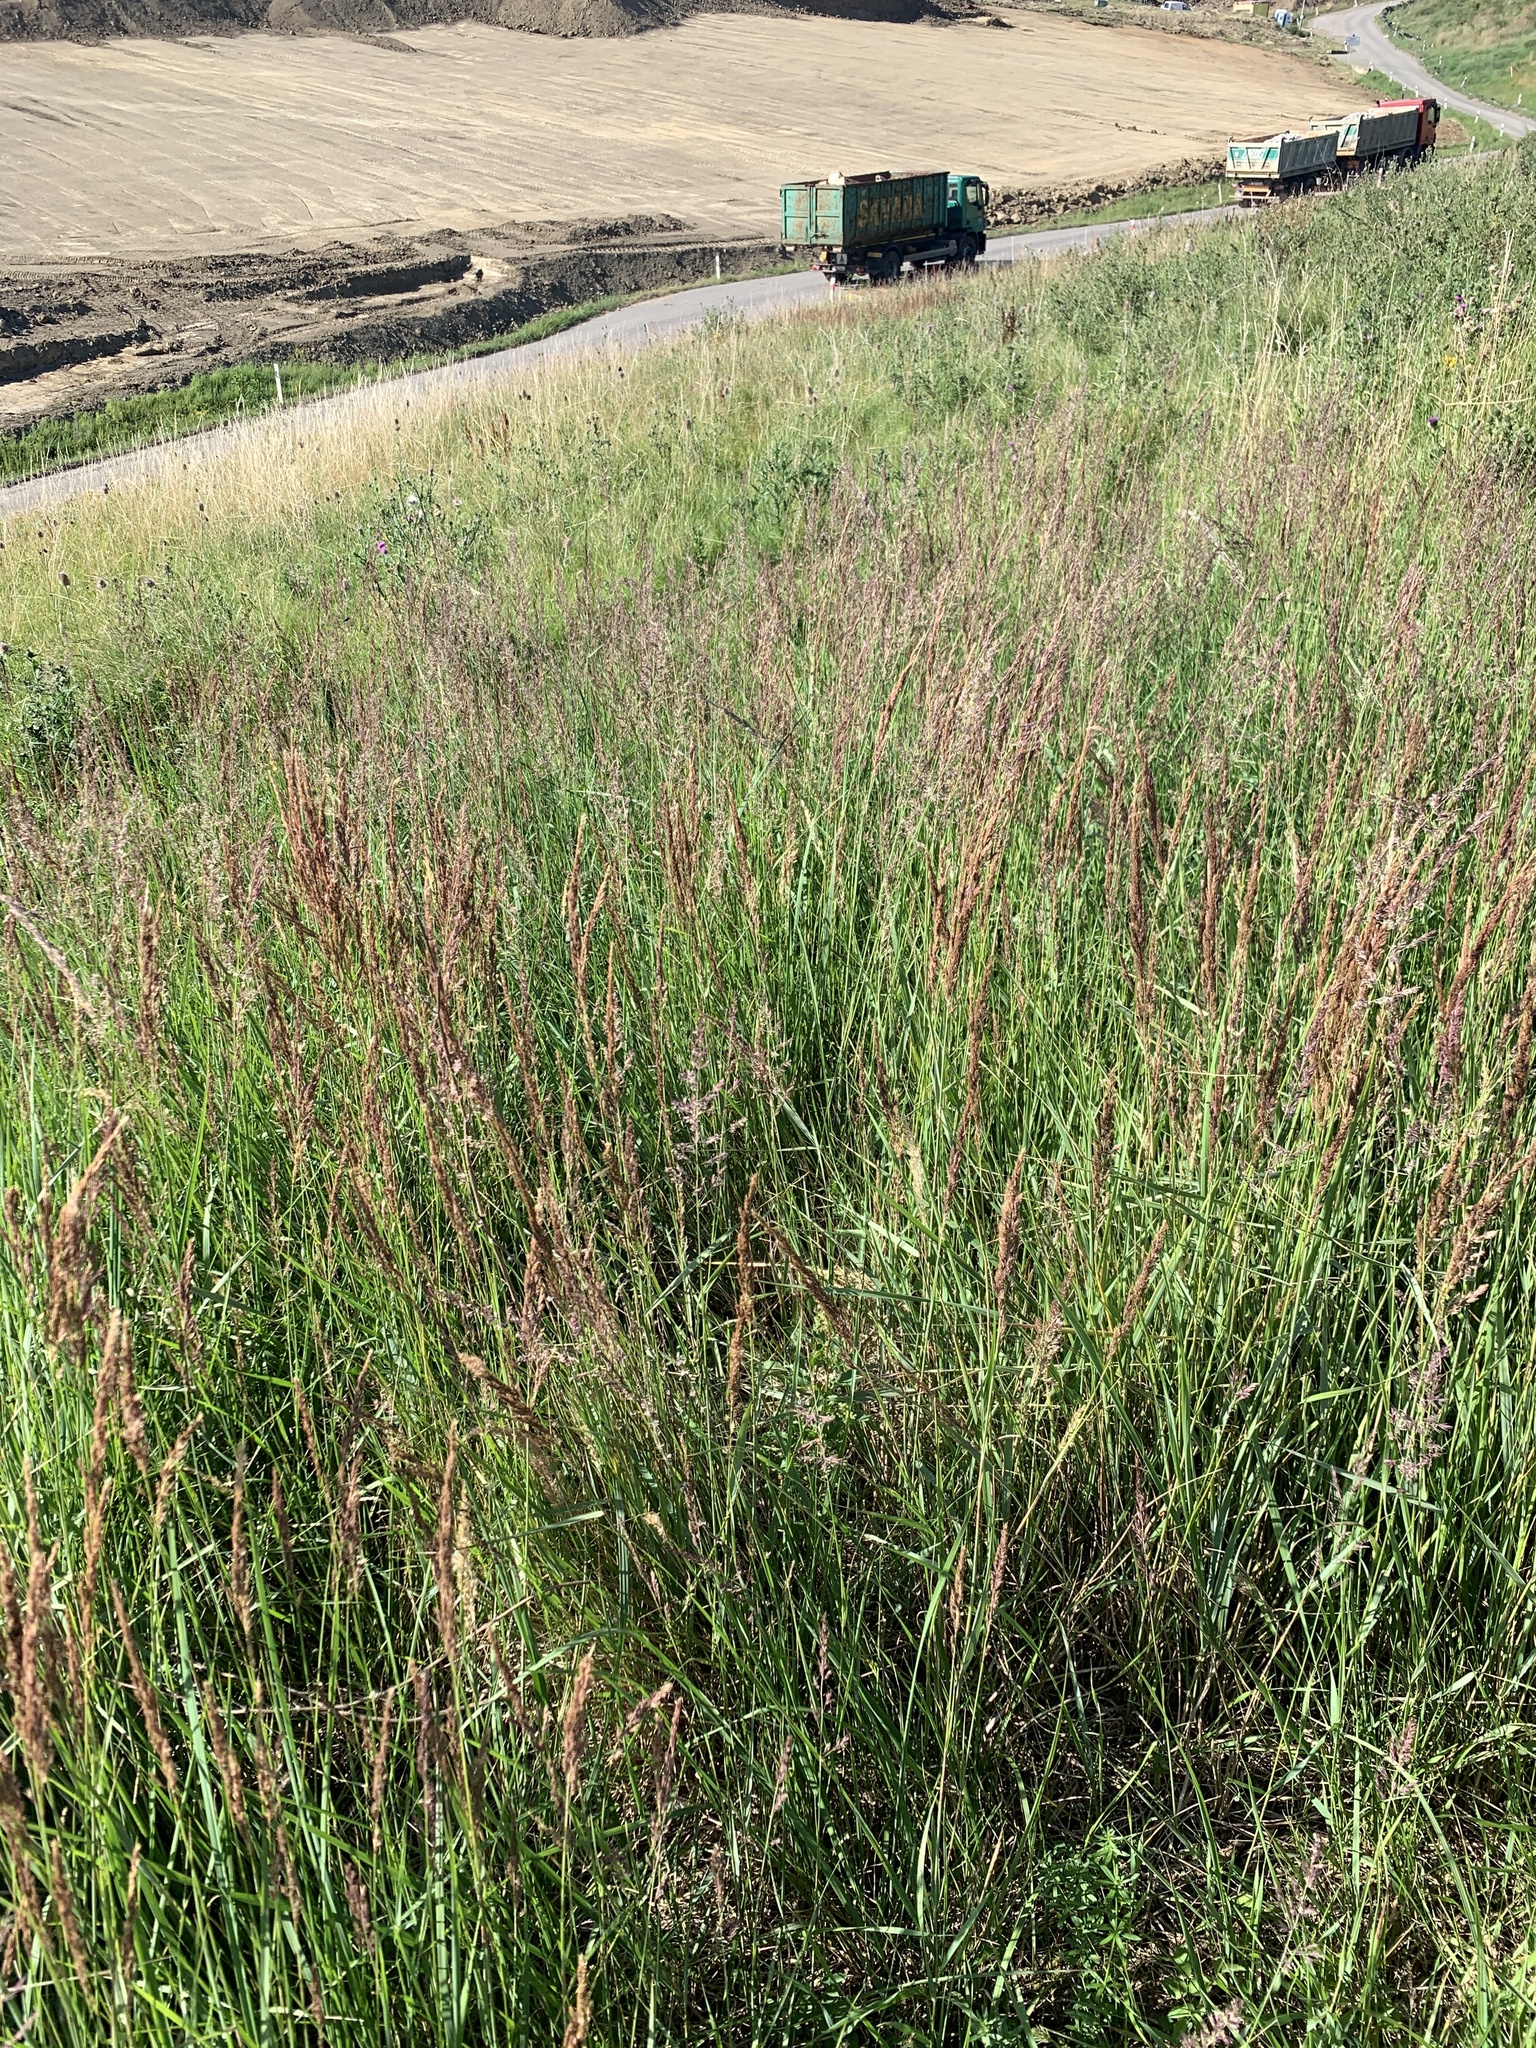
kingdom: Plantae
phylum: Tracheophyta
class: Liliopsida
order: Poales
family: Poaceae
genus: Calamagrostis
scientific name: Calamagrostis epigejos
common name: Wood small-reed
